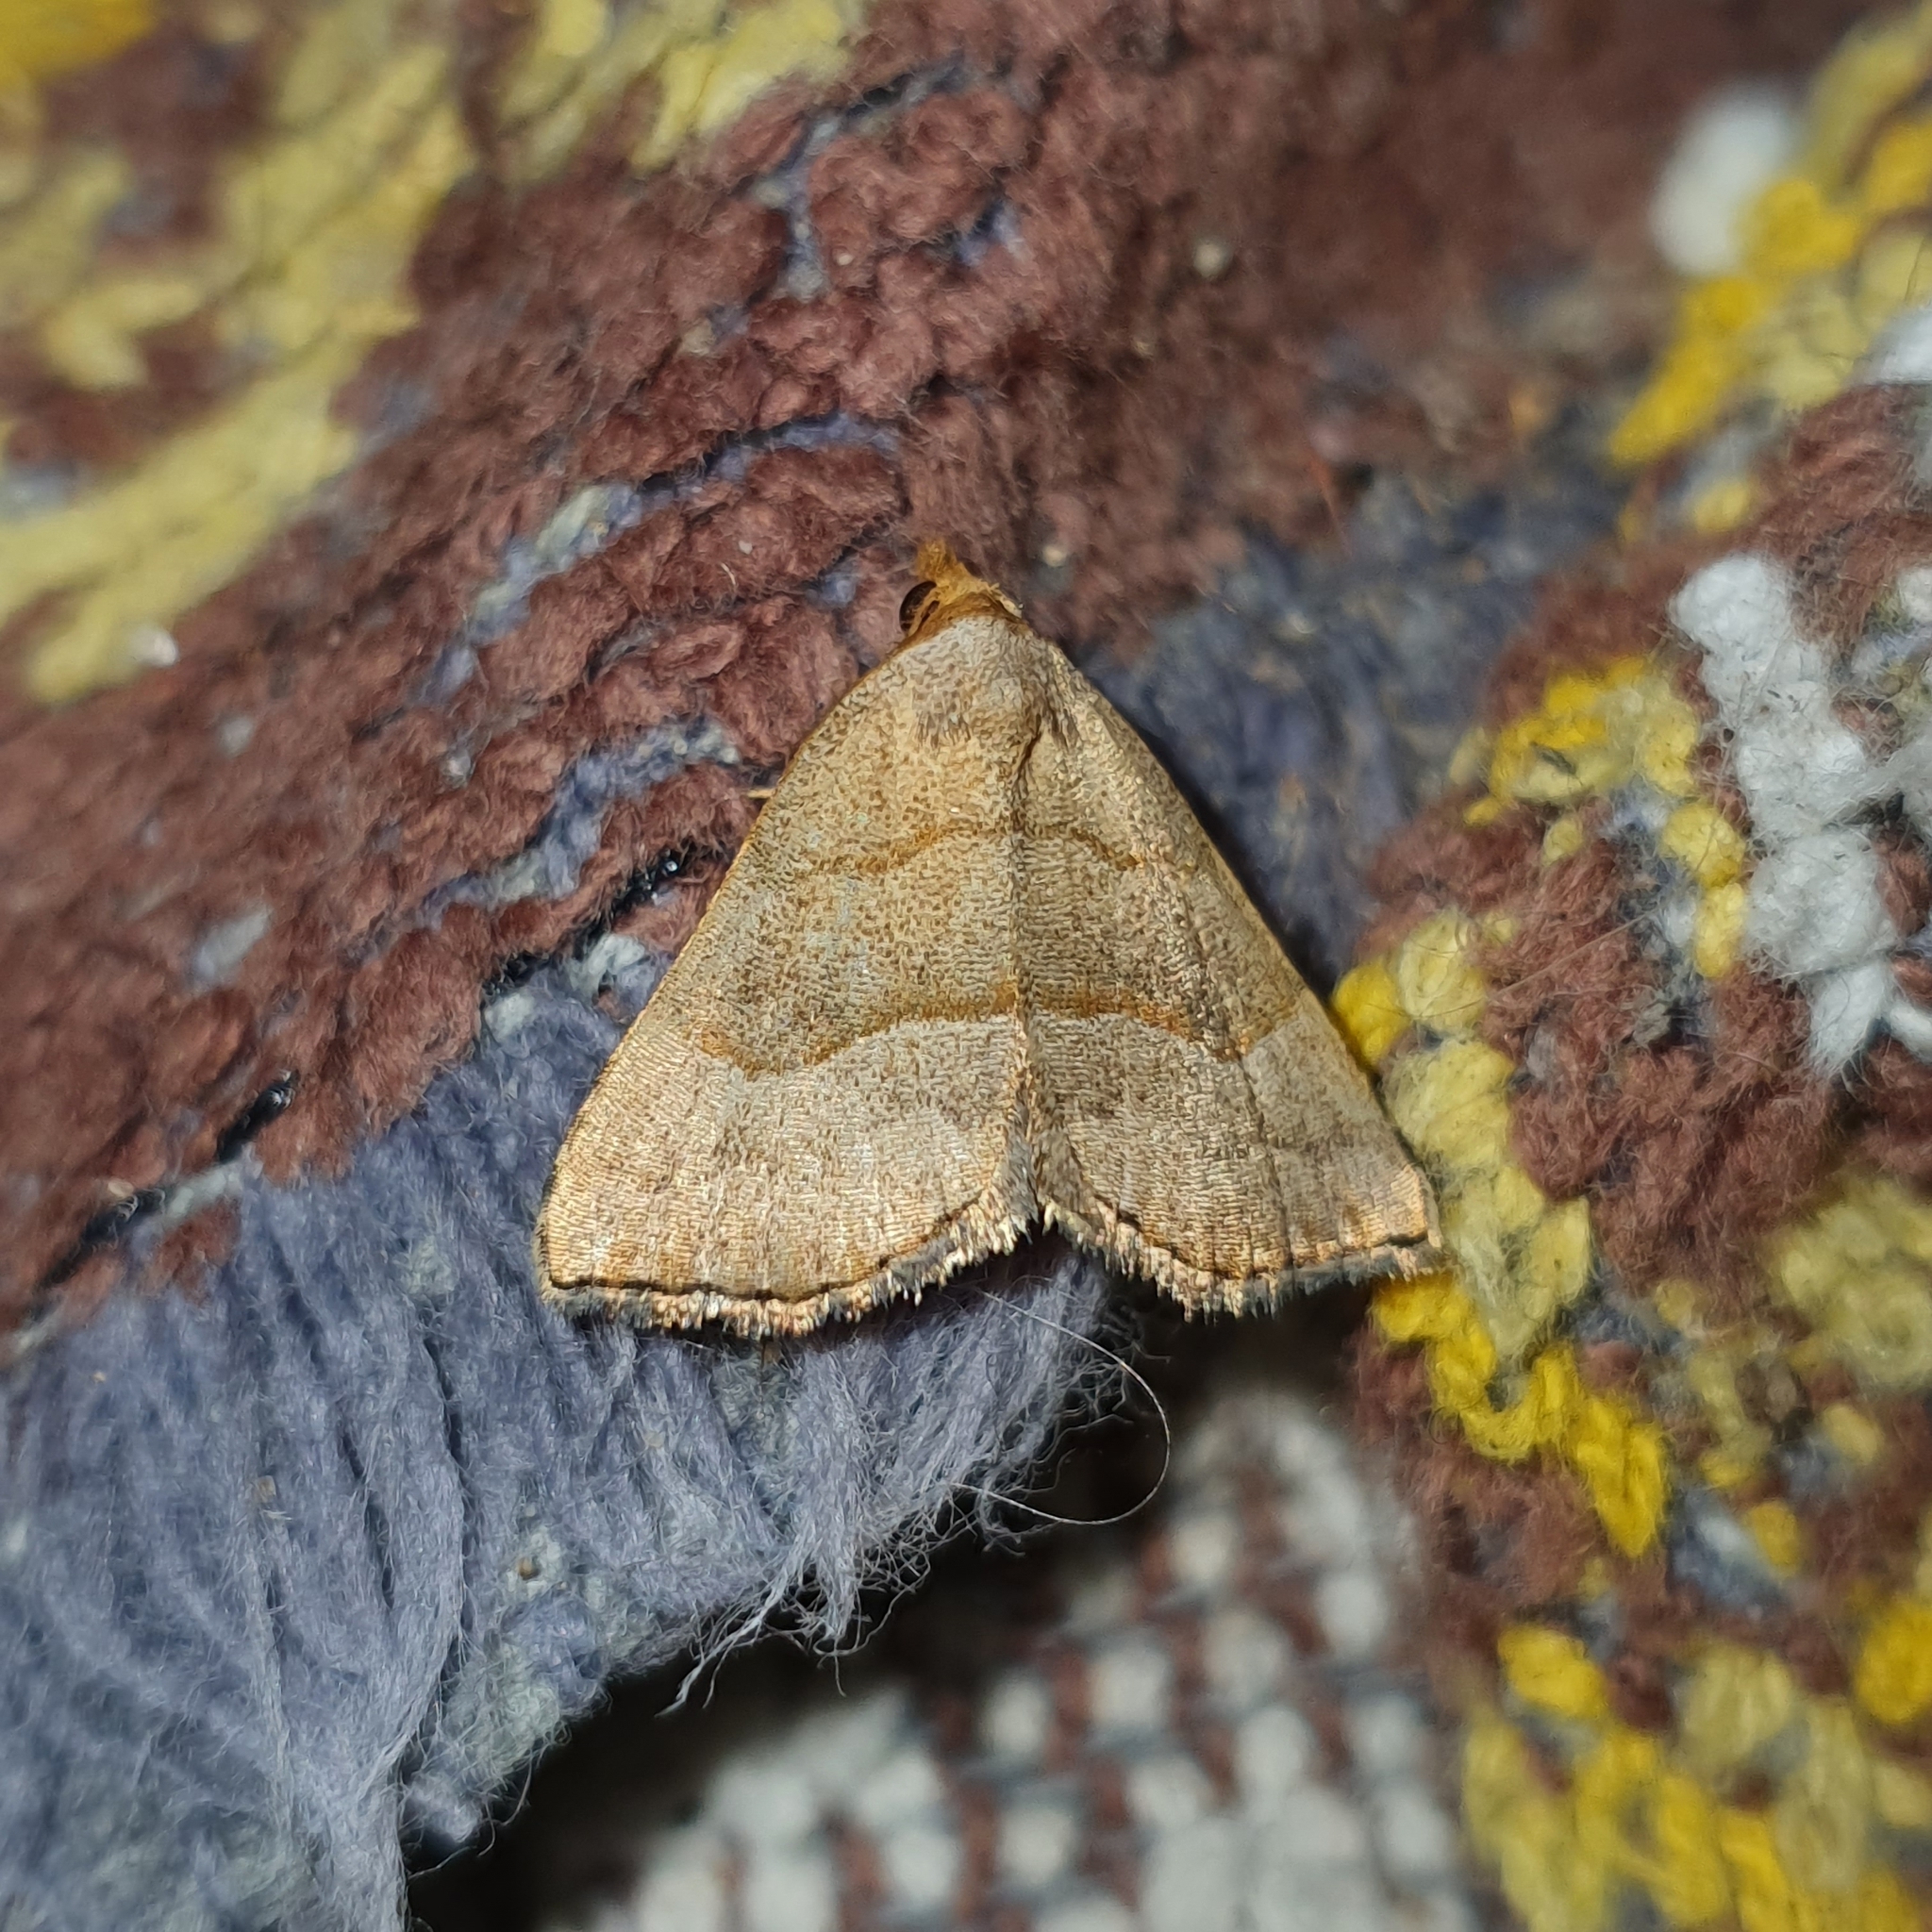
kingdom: Animalia
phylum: Arthropoda
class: Insecta
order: Lepidoptera
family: Erebidae
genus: Meranda
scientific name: Meranda susialis
